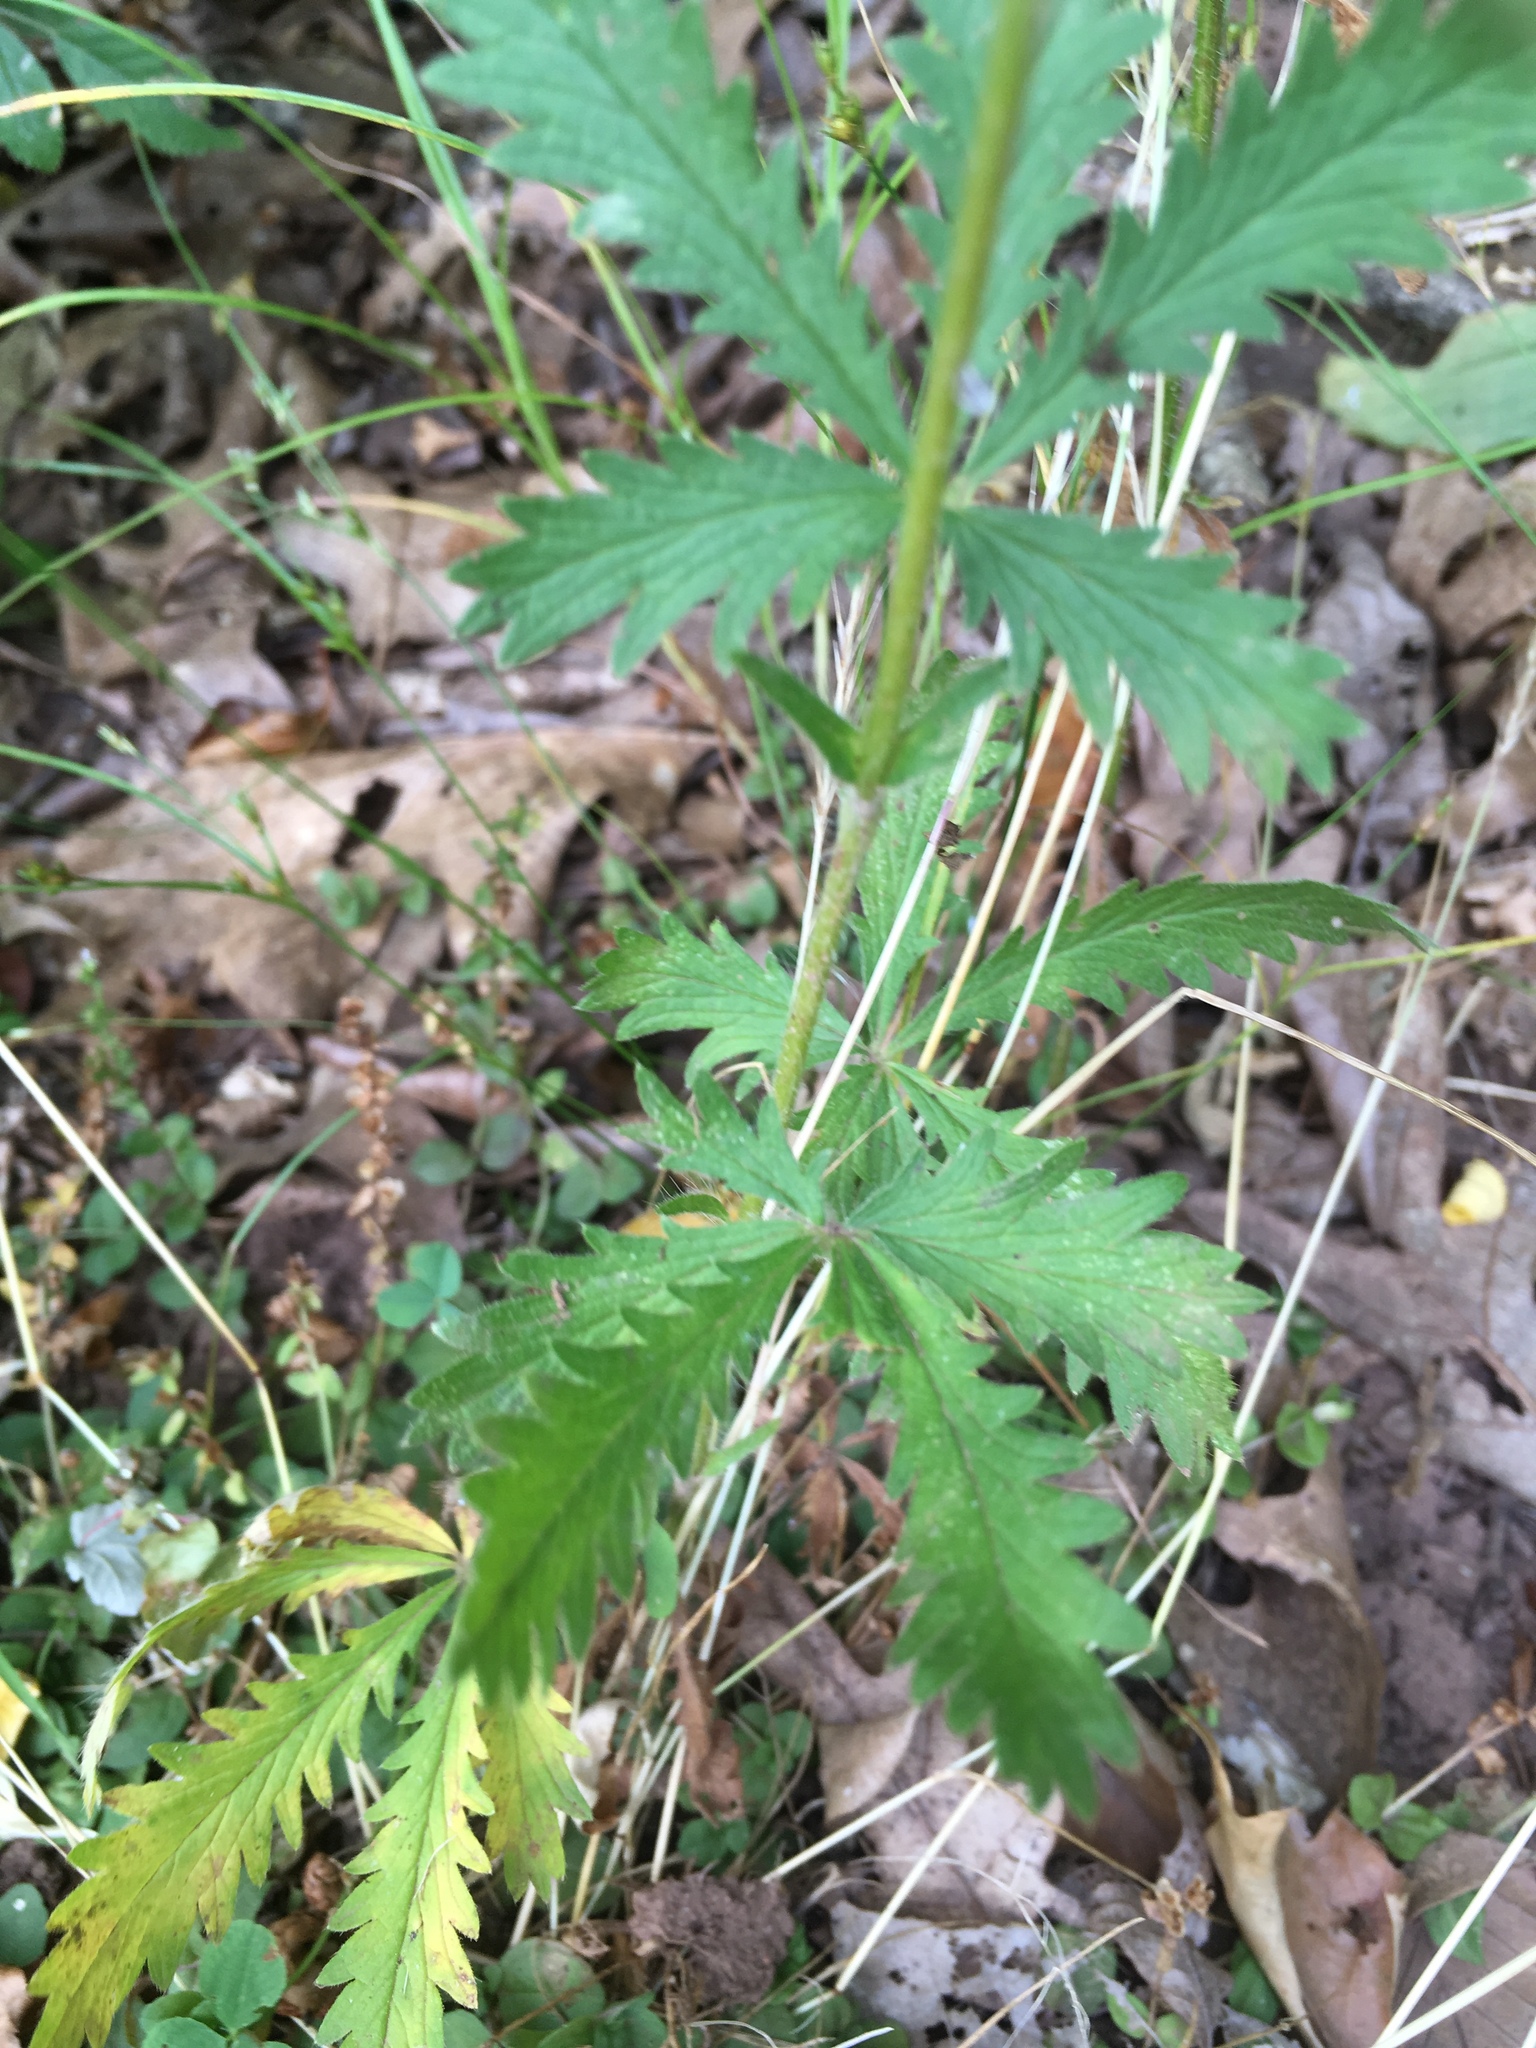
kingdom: Plantae
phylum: Tracheophyta
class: Magnoliopsida
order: Rosales
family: Rosaceae
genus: Potentilla
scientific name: Potentilla recta
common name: Sulphur cinquefoil
